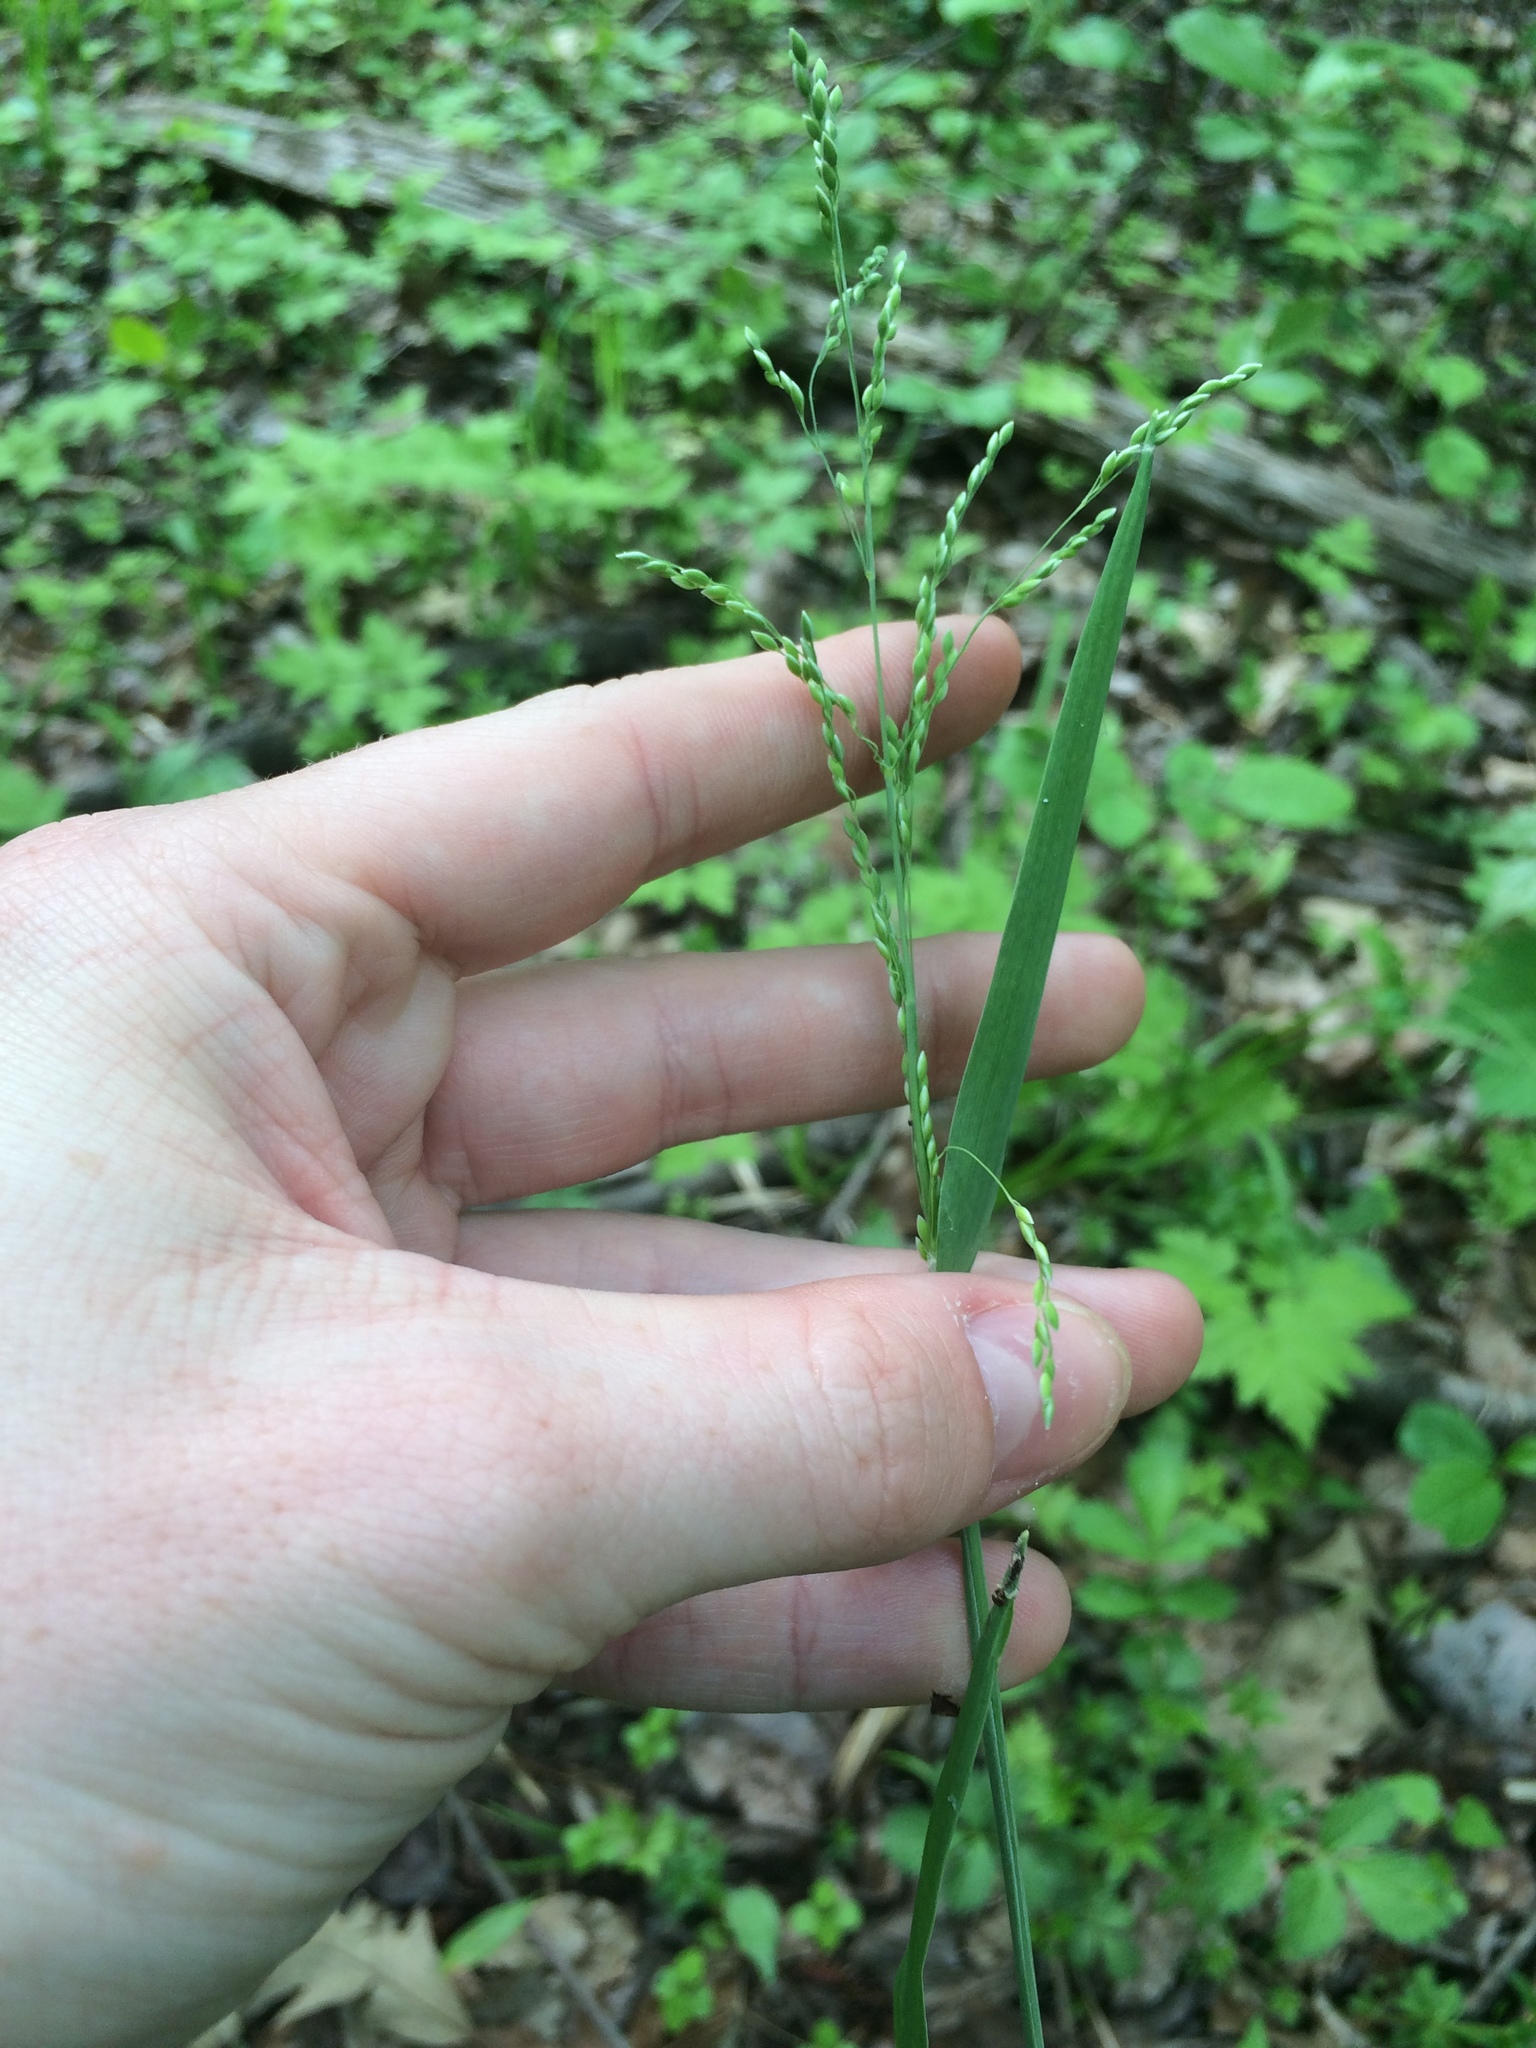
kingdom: Plantae
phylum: Tracheophyta
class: Liliopsida
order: Poales
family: Poaceae
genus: Milium
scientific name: Milium effusum
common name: Wood millet
